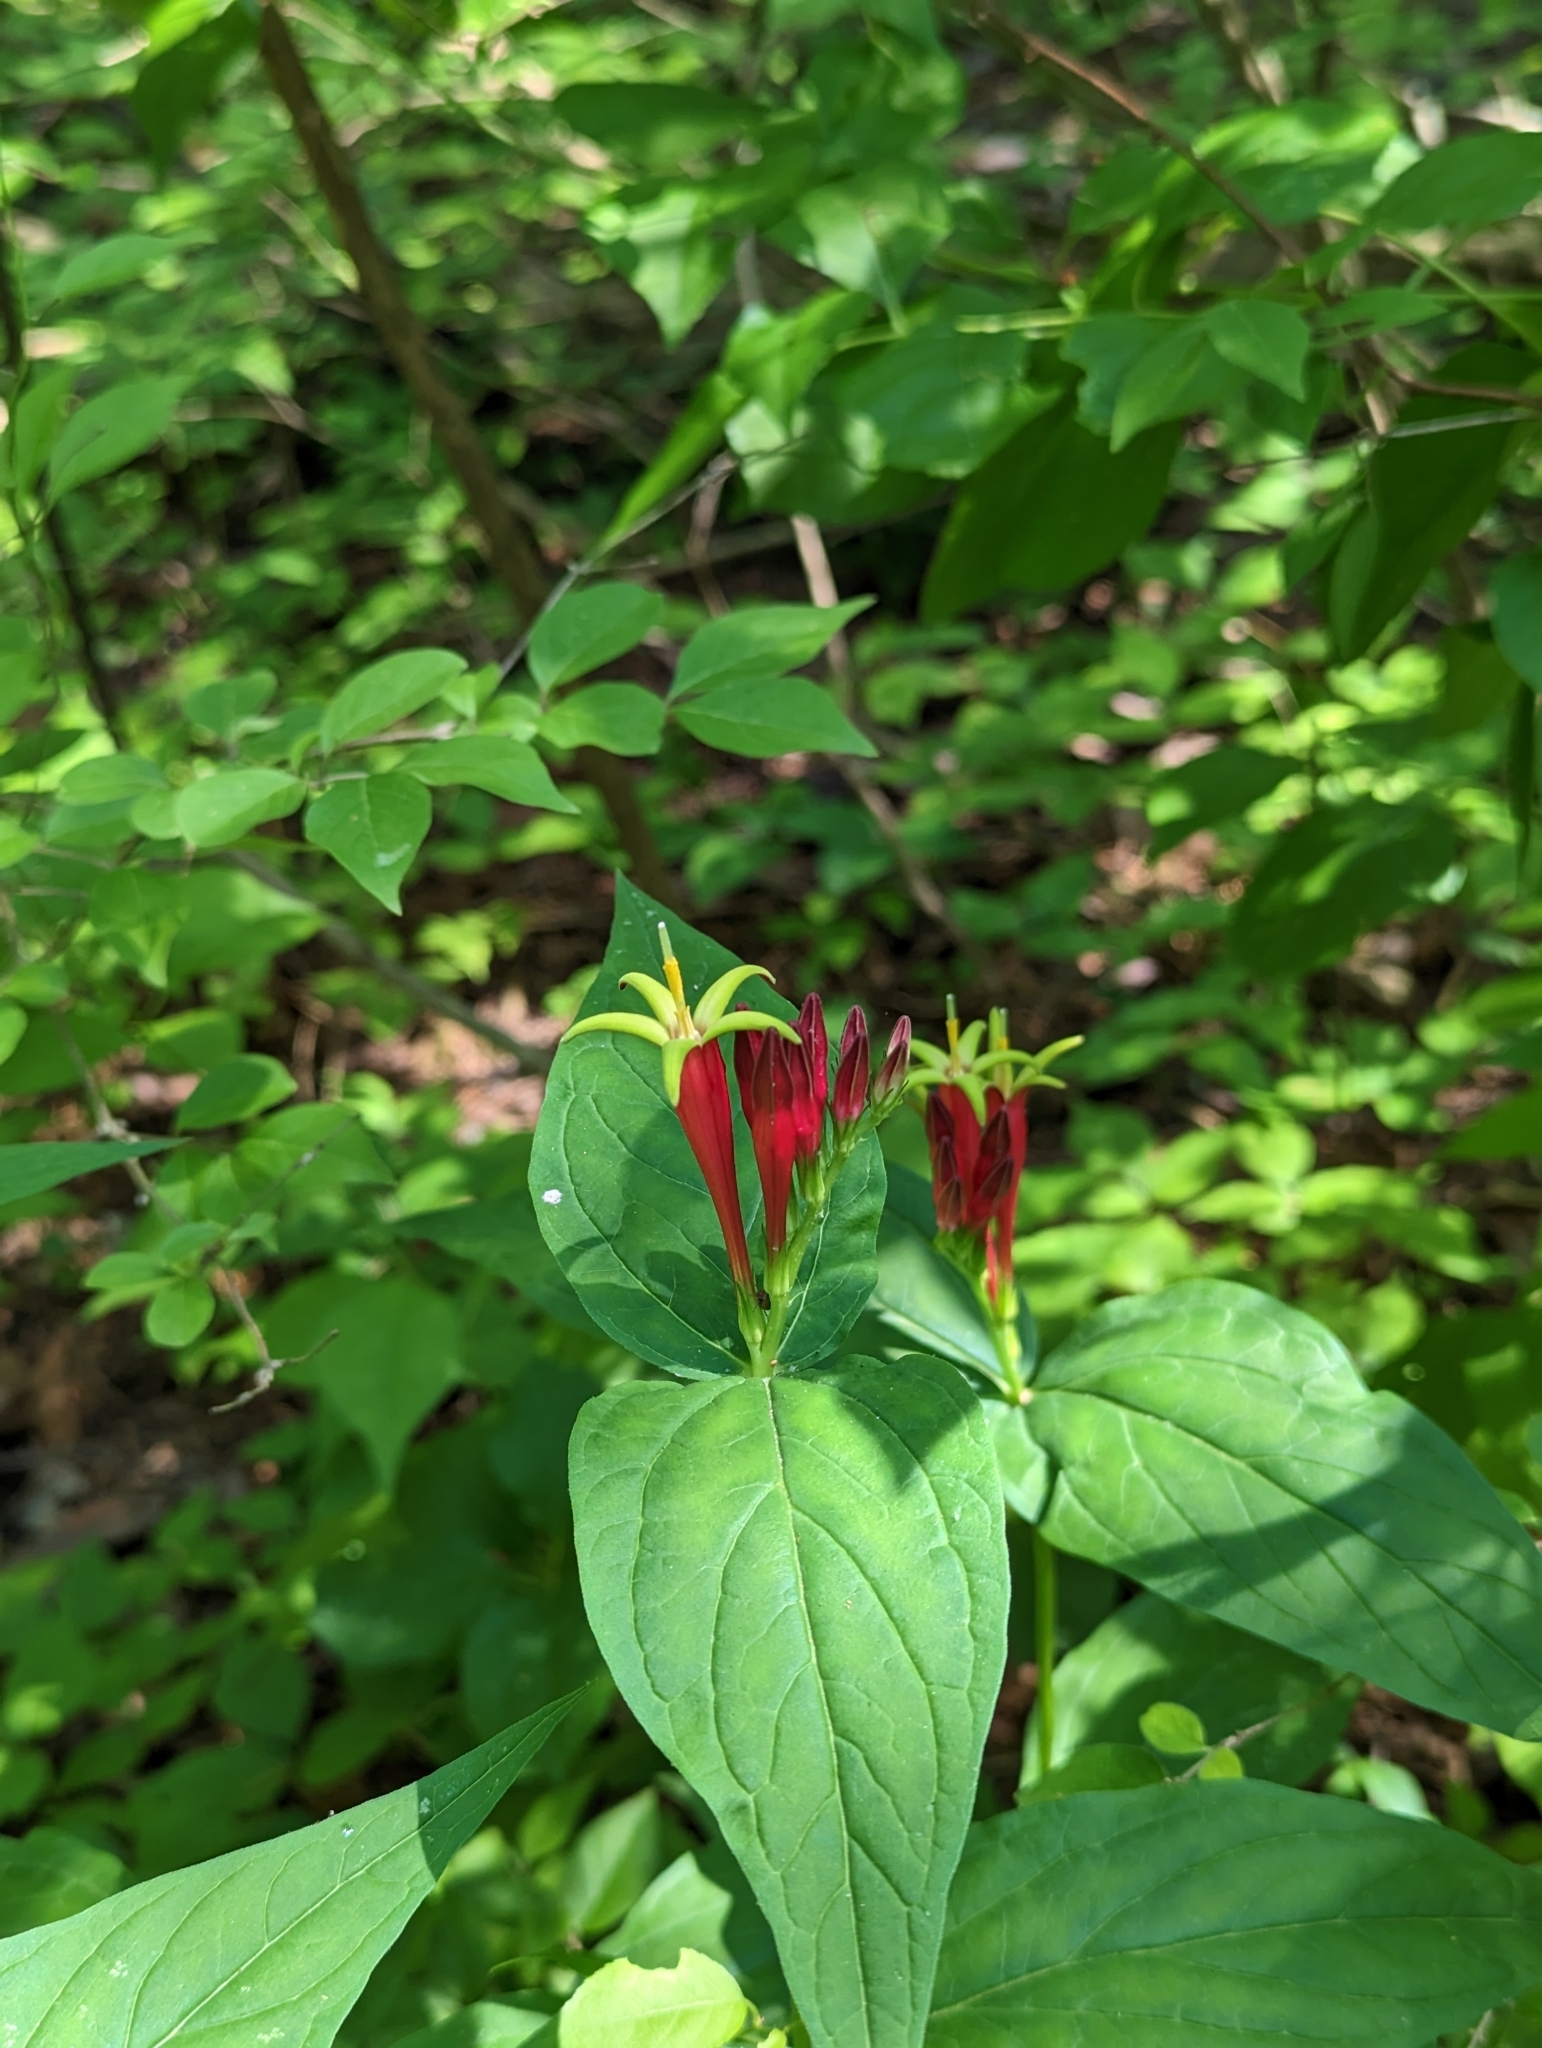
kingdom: Plantae
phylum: Tracheophyta
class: Magnoliopsida
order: Gentianales
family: Loganiaceae
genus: Spigelia
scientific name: Spigelia marilandica
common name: Indian-pink
